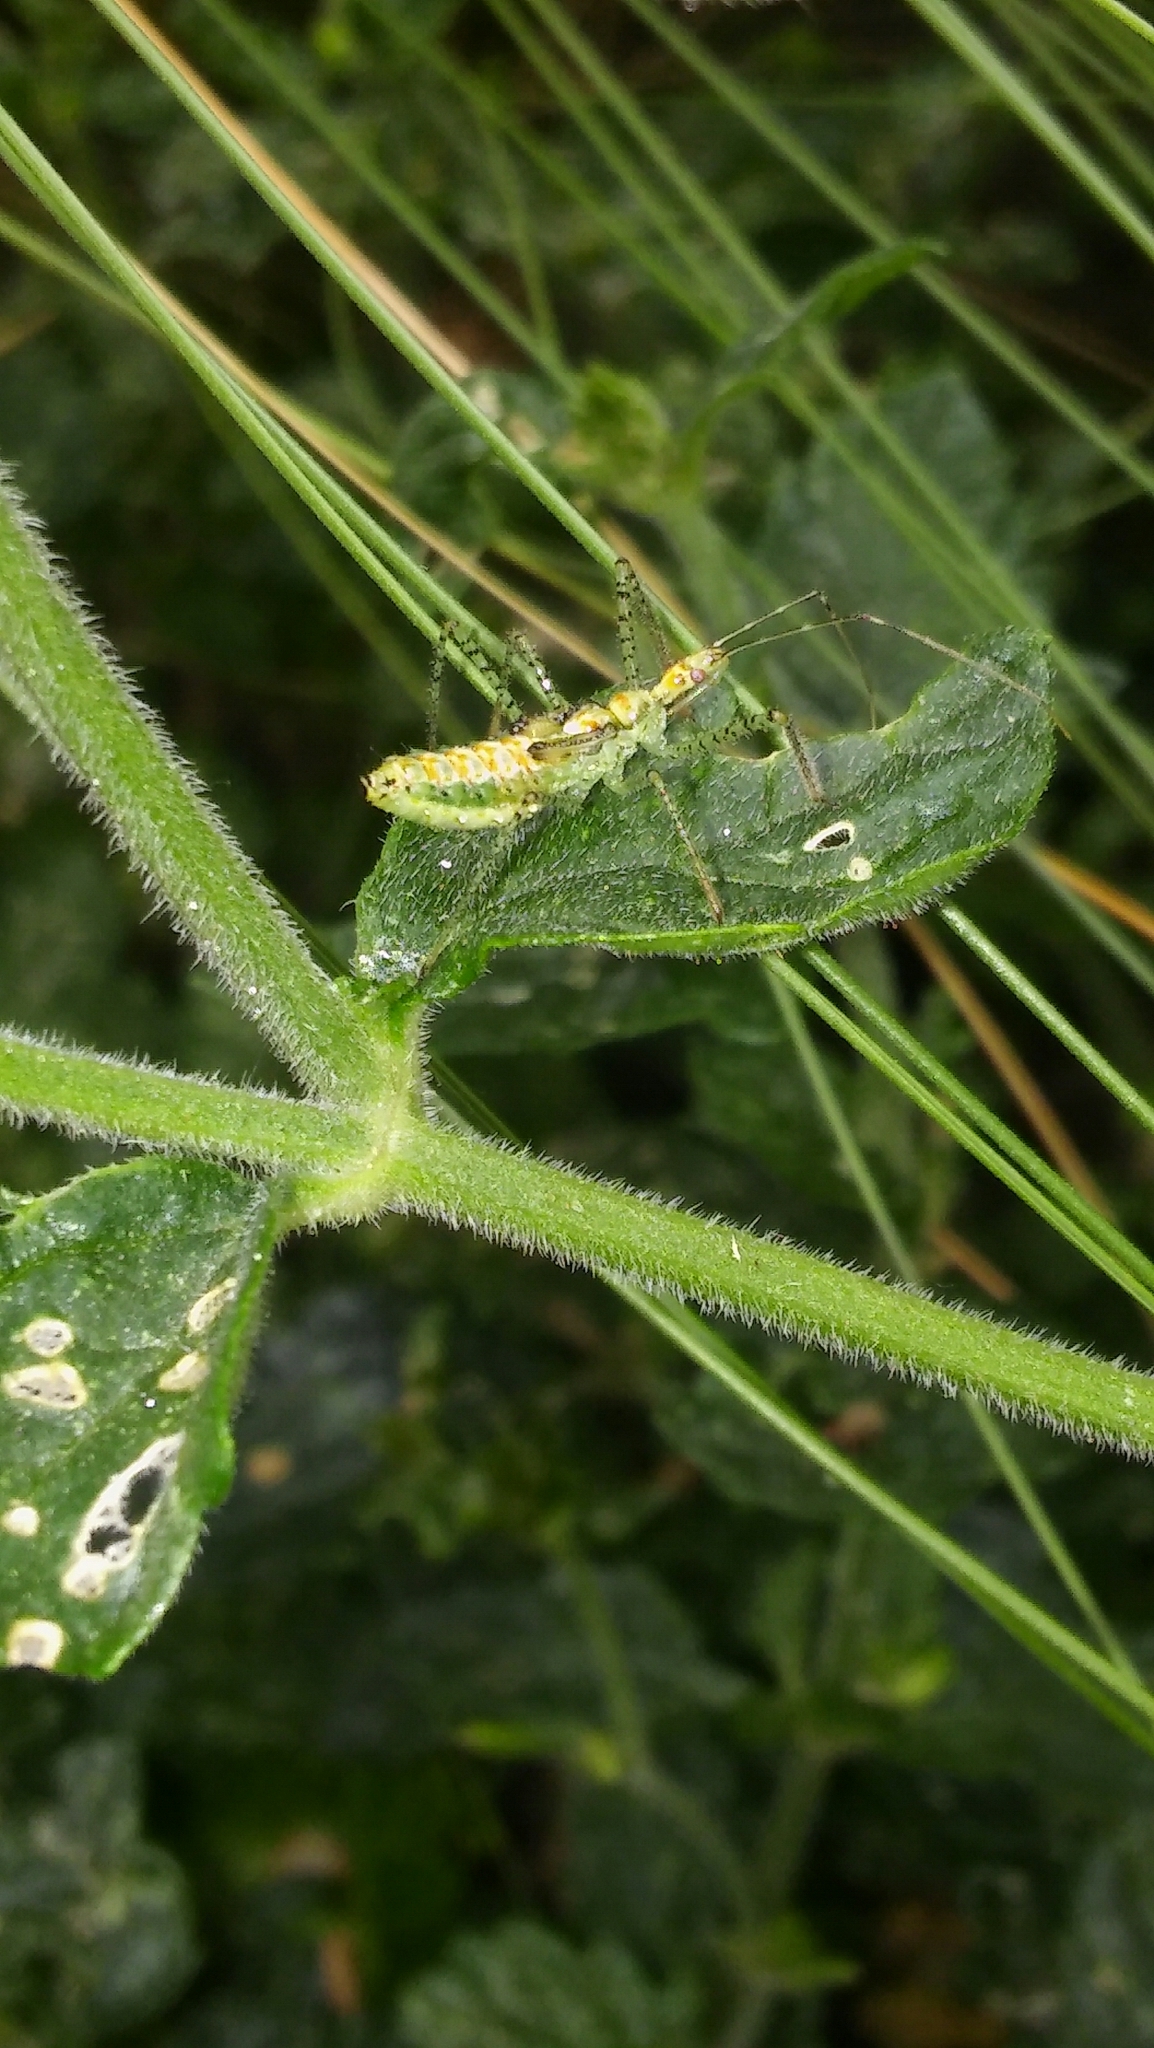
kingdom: Animalia
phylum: Arthropoda
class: Insecta
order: Hemiptera
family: Reduviidae
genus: Zelus
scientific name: Zelus renardii
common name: Assassin bug
